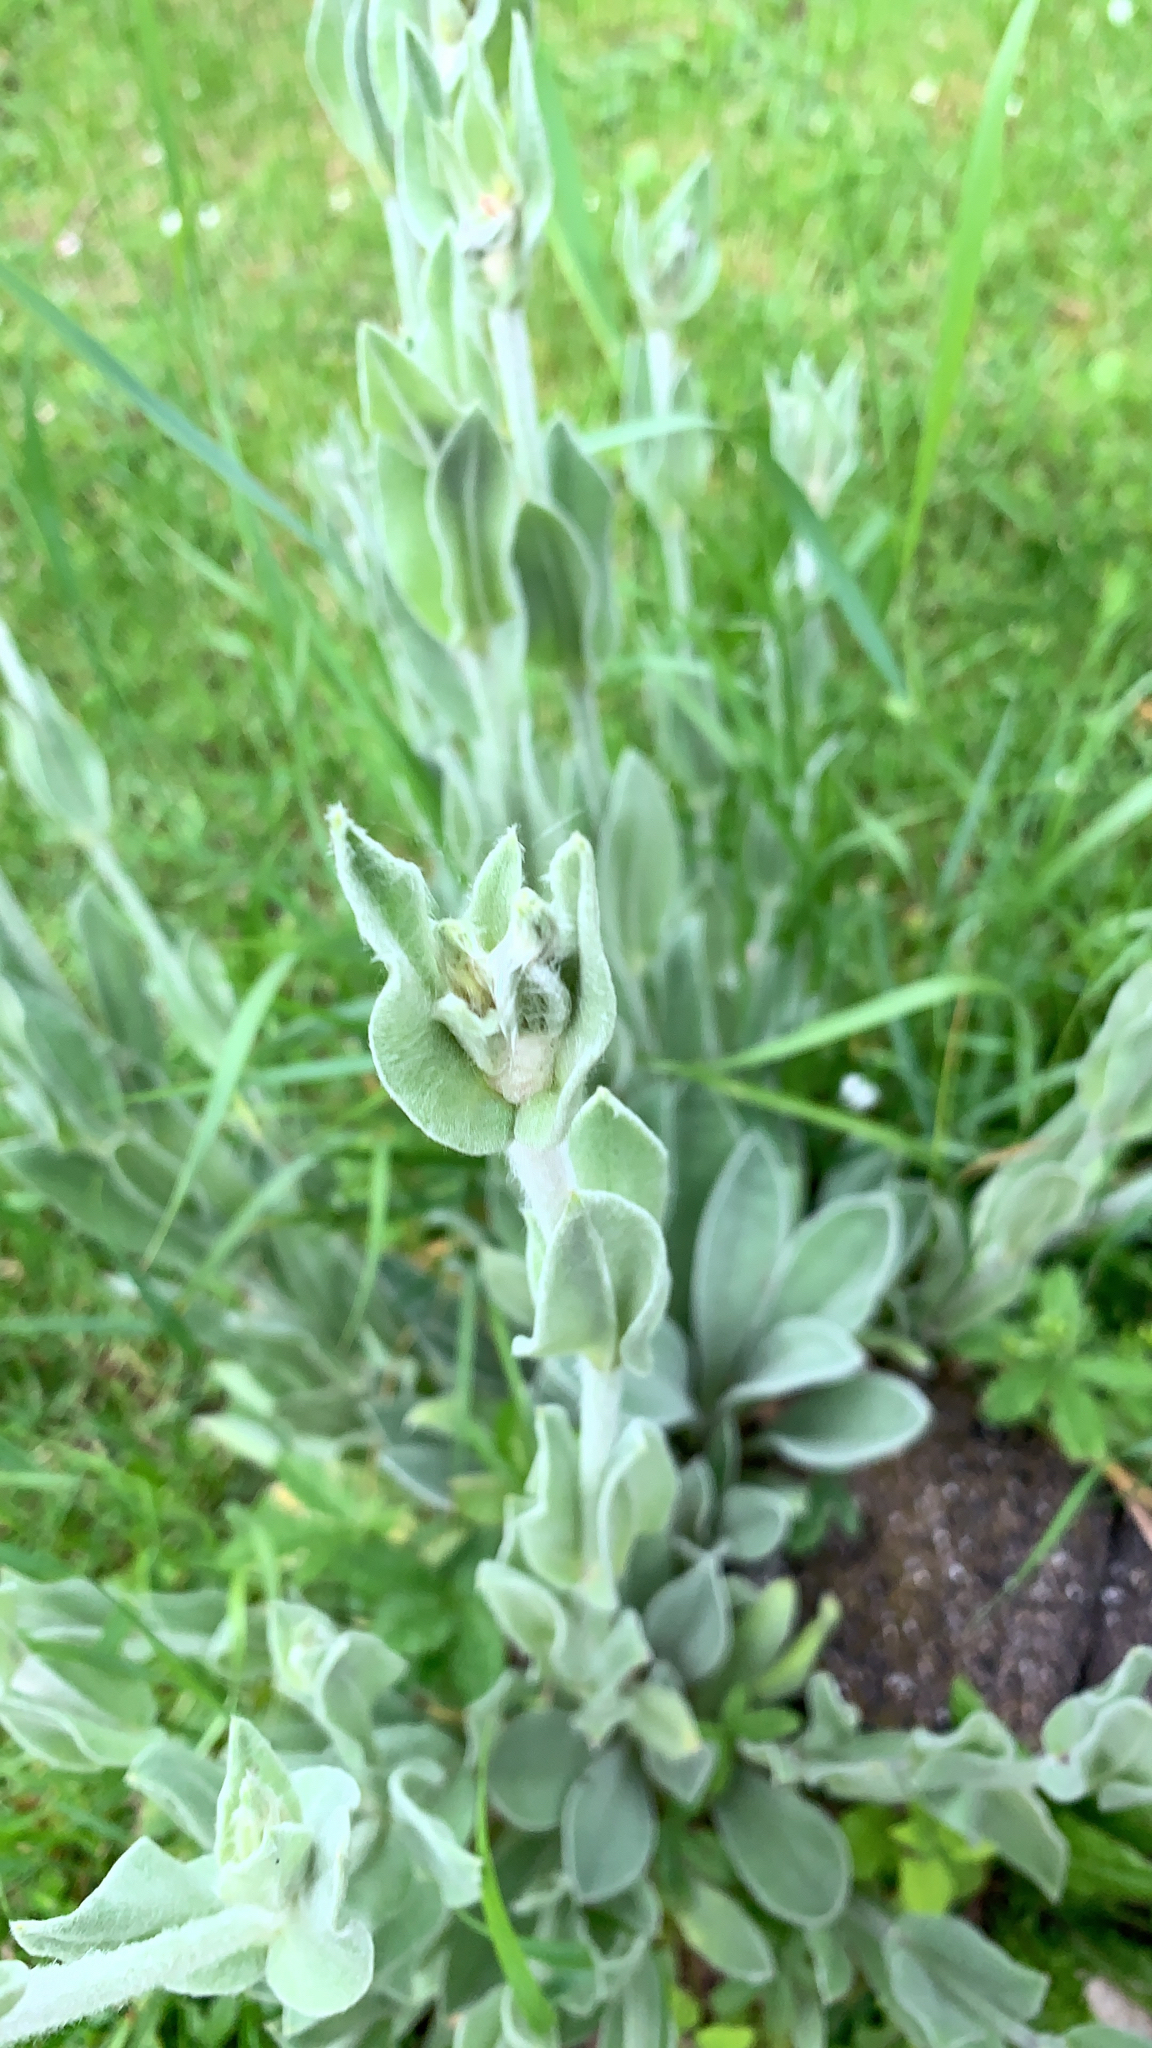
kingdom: Plantae
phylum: Tracheophyta
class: Magnoliopsida
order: Caryophyllales
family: Caryophyllaceae
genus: Silene
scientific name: Silene coronaria
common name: Rose campion
